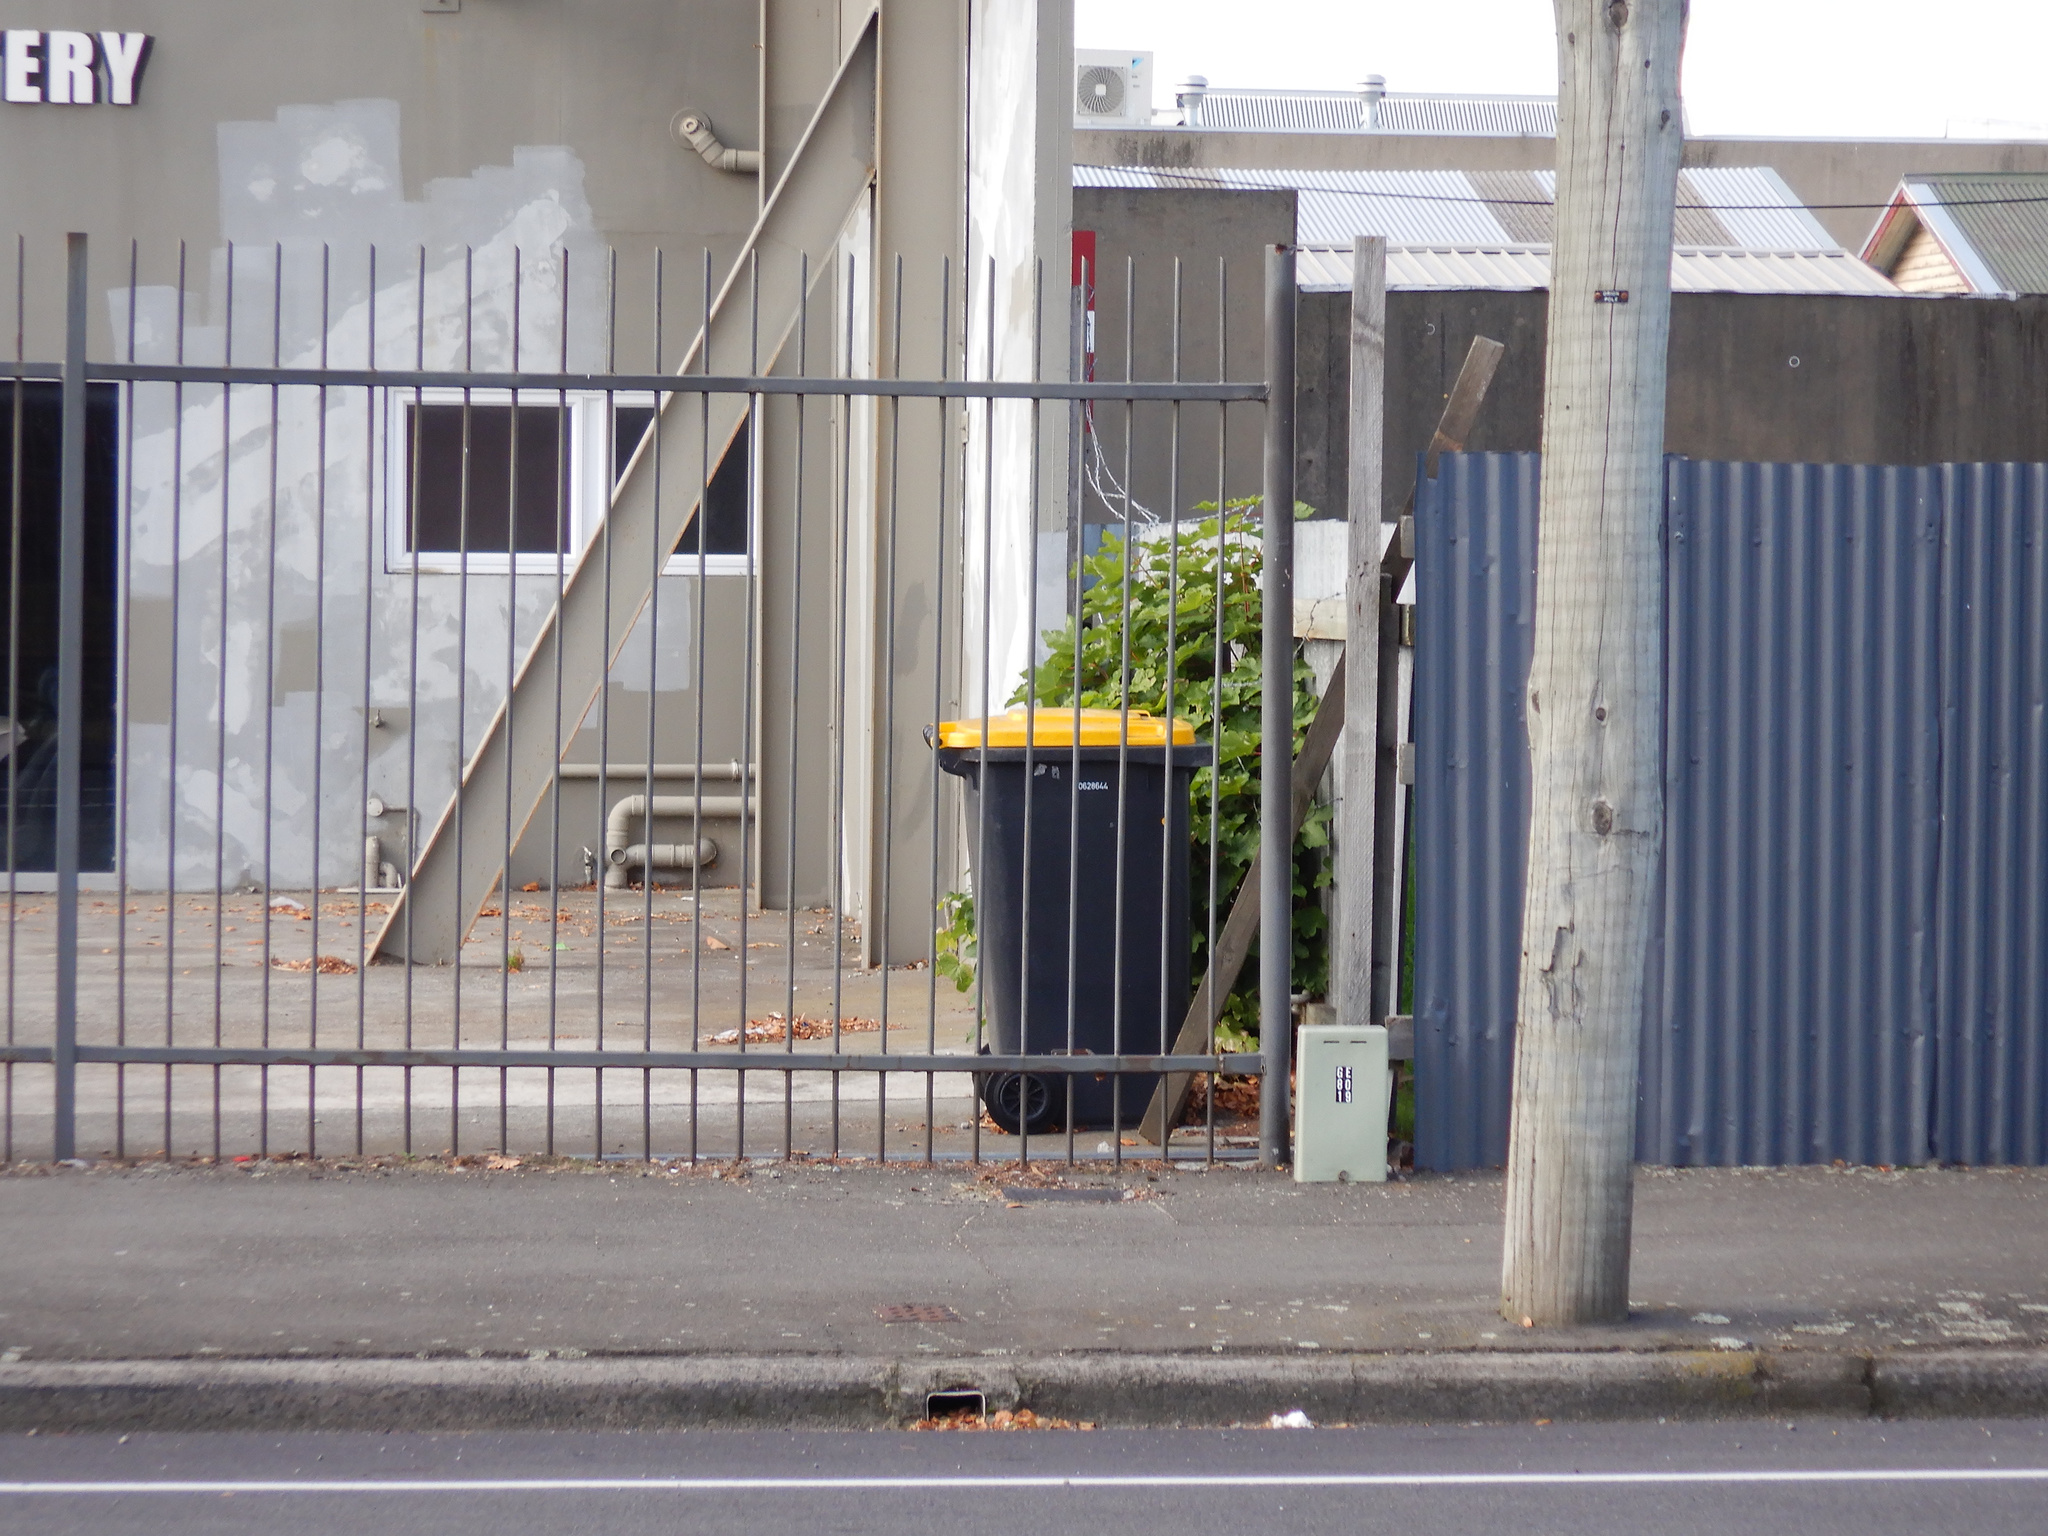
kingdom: Plantae
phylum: Tracheophyta
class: Magnoliopsida
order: Sapindales
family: Sapindaceae
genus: Acer
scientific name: Acer pseudoplatanus
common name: Sycamore
